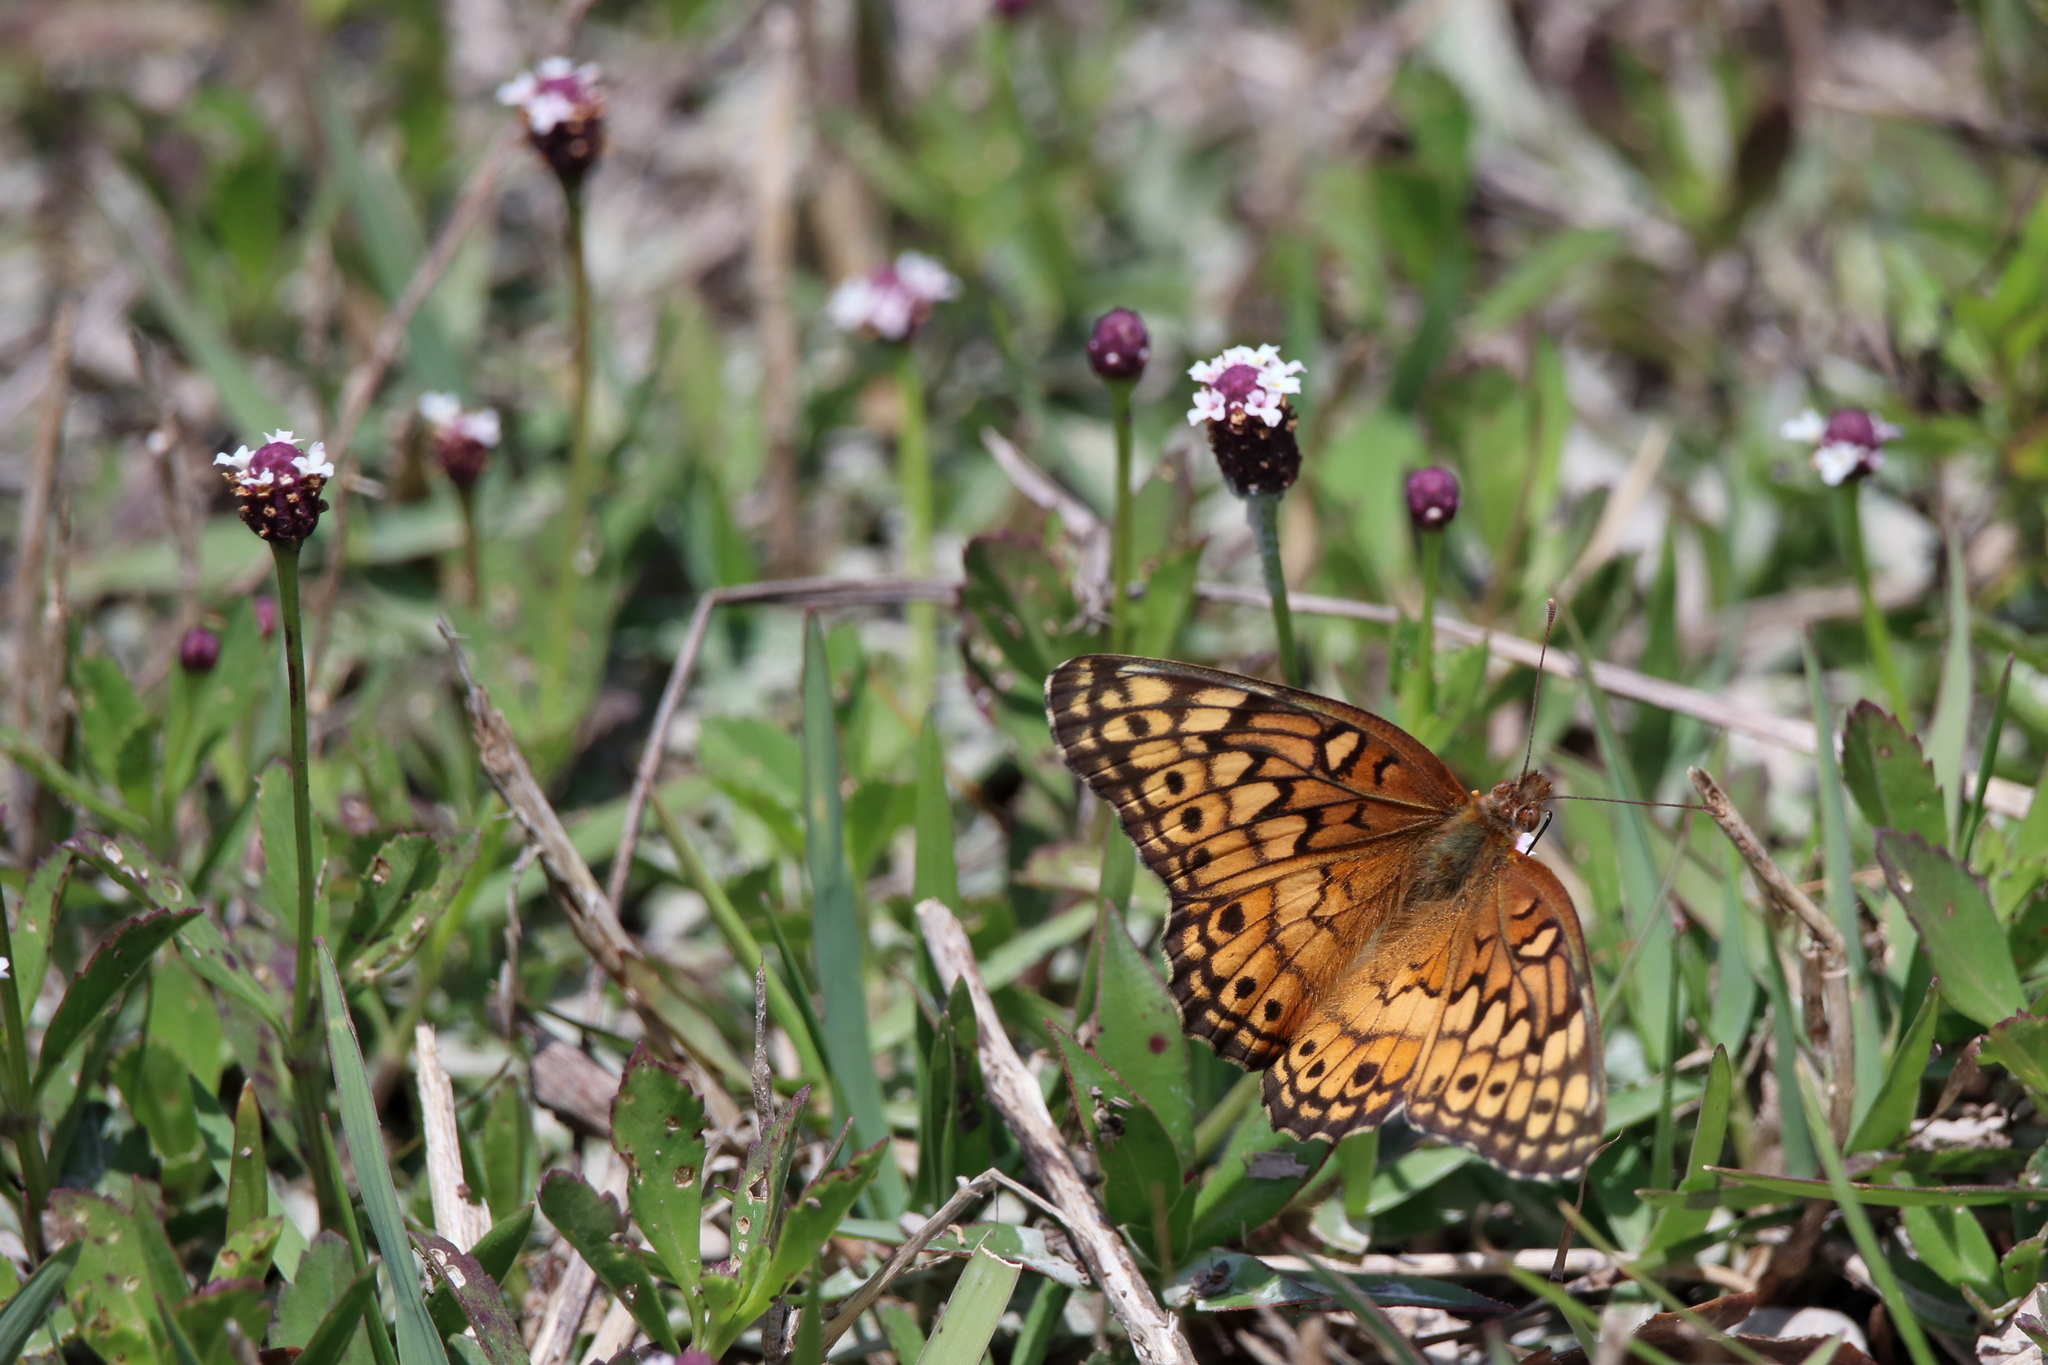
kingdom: Animalia
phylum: Arthropoda
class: Insecta
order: Lepidoptera
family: Nymphalidae
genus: Euptoieta
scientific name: Euptoieta claudia
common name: Variegated fritillary
